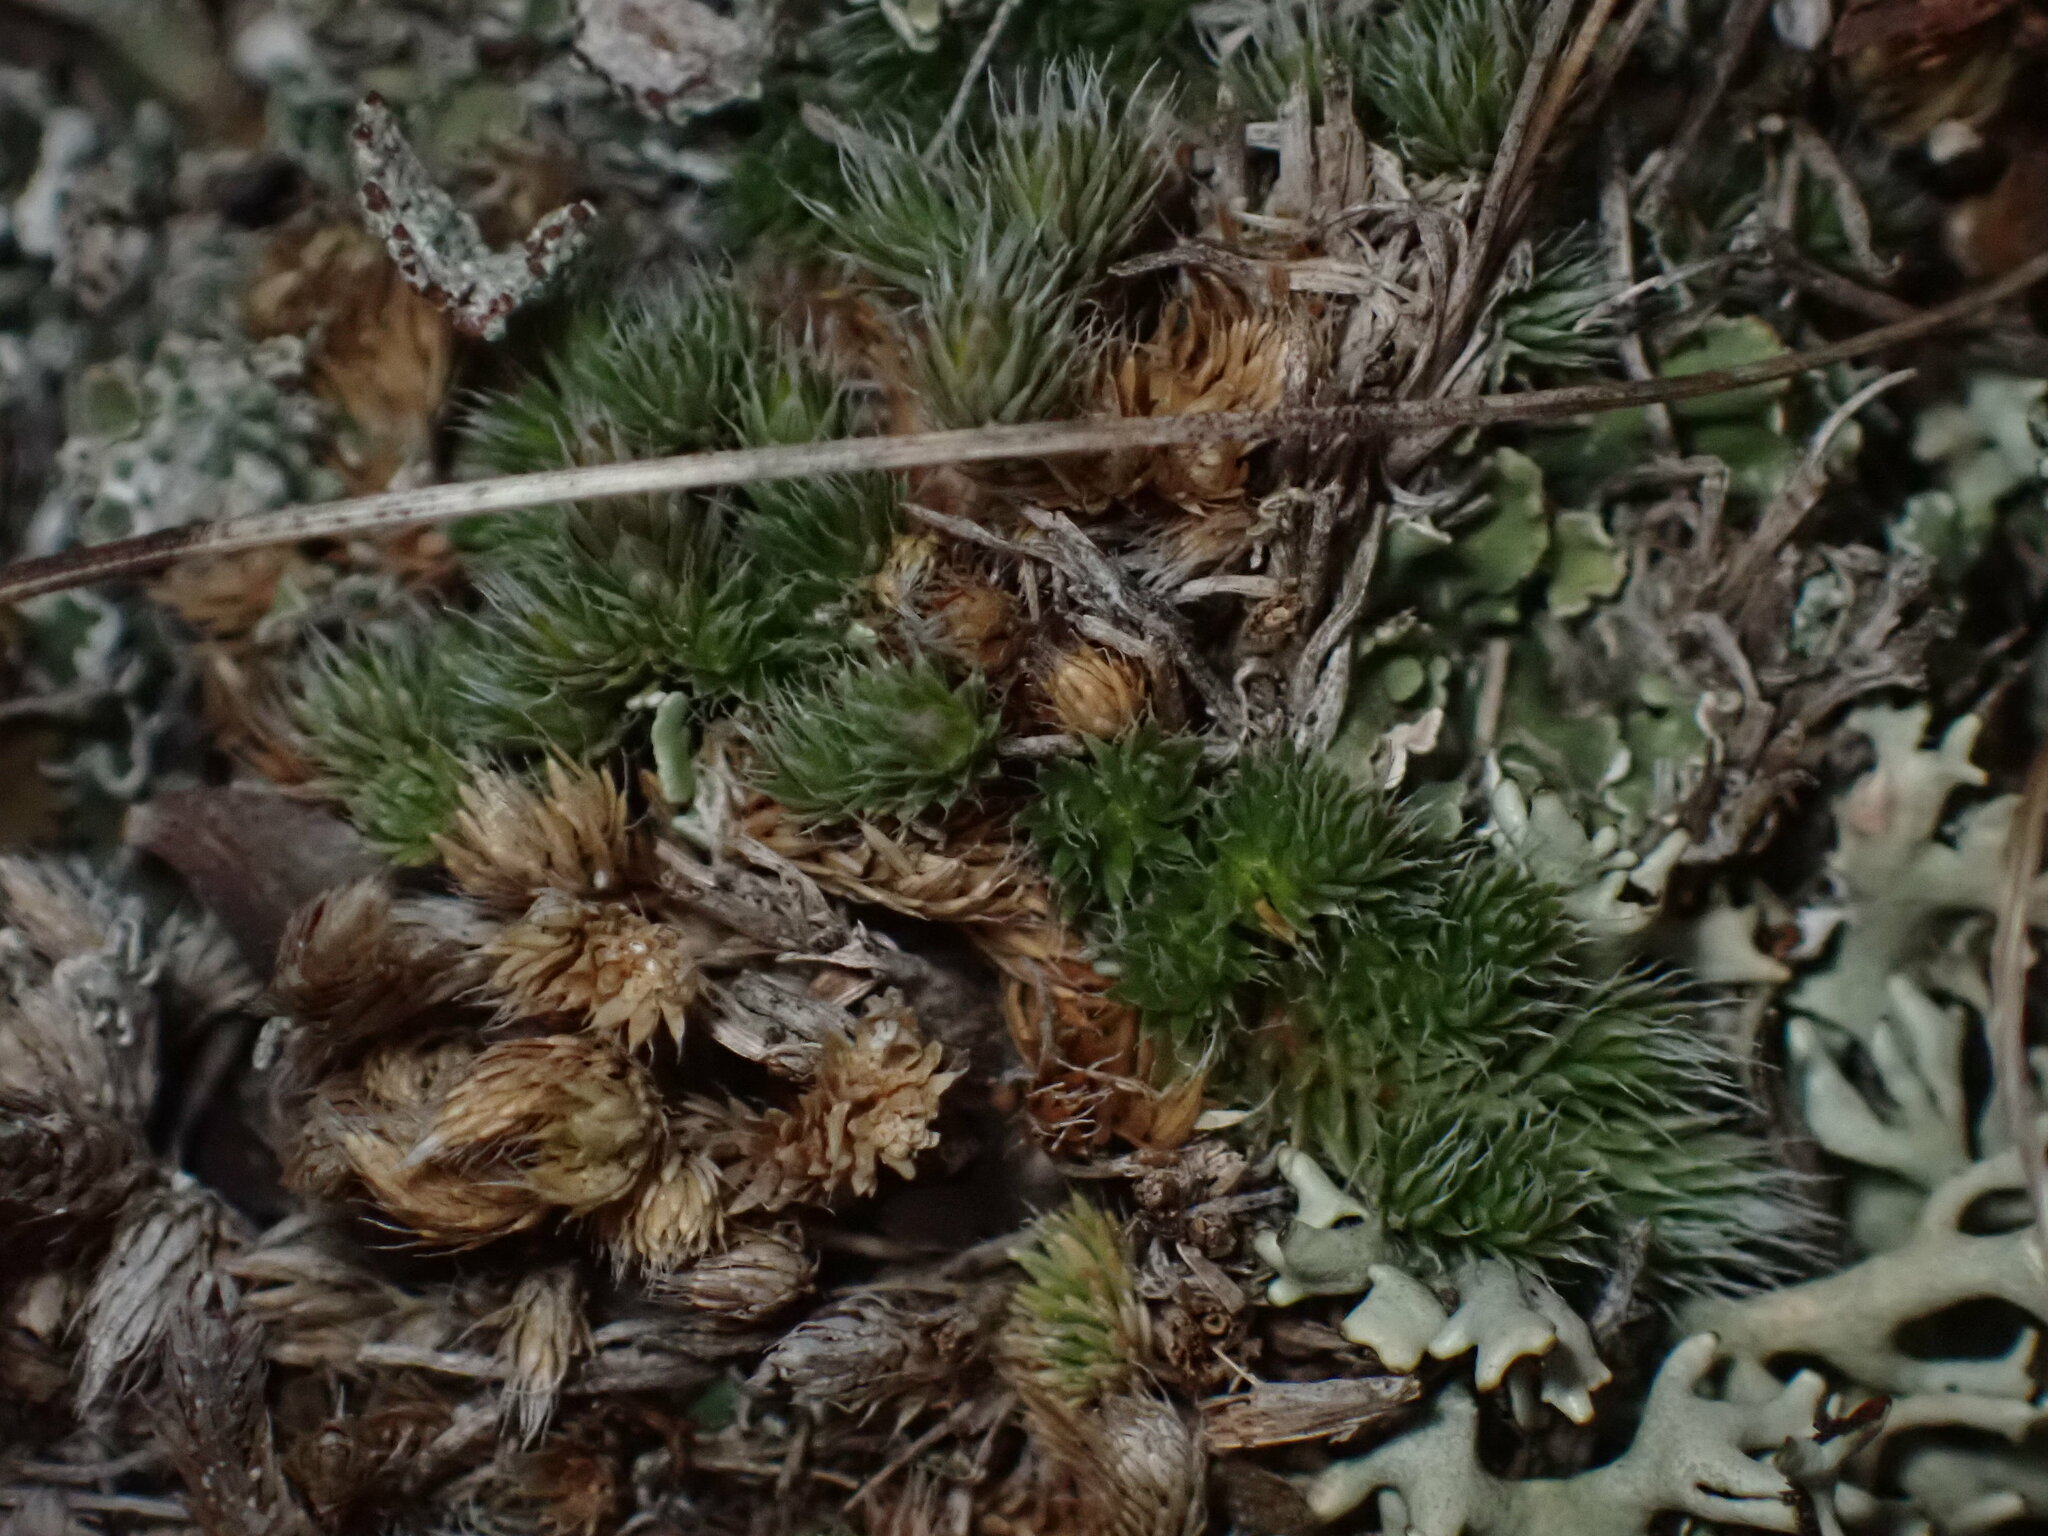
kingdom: Plantae
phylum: Tracheophyta
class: Lycopodiopsida
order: Selaginellales
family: Selaginellaceae
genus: Selaginella
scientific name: Selaginella densa
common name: Mountain spike-moss
